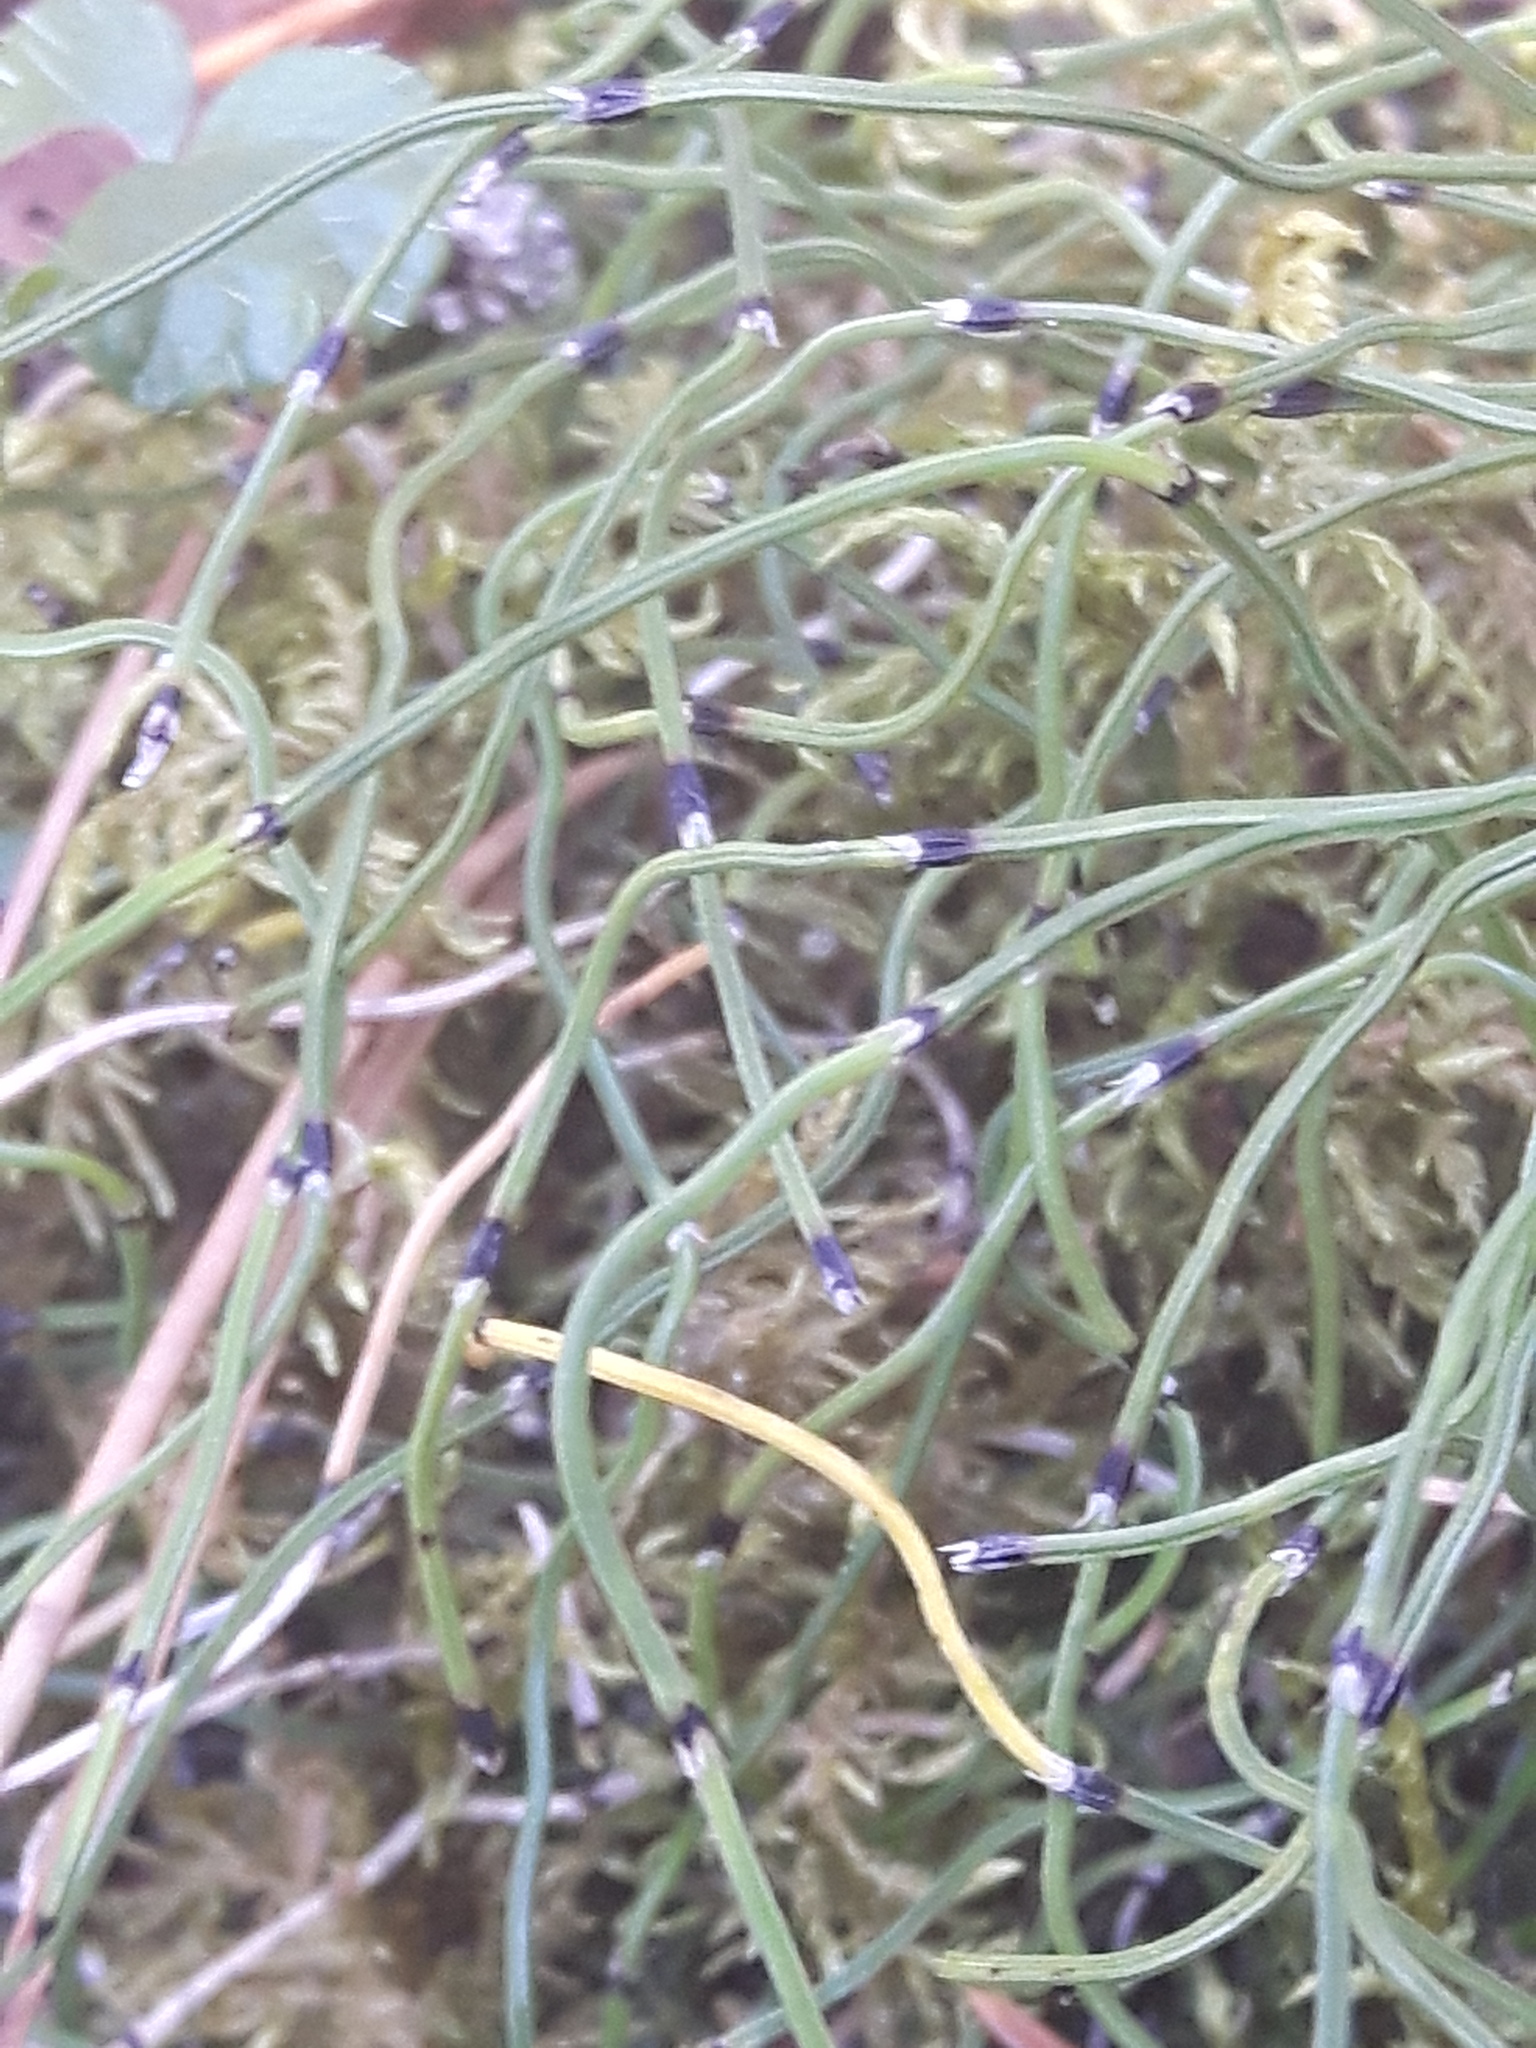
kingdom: Plantae
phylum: Tracheophyta
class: Polypodiopsida
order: Equisetales
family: Equisetaceae
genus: Equisetum
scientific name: Equisetum scirpoides
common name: Delicate horsetail
